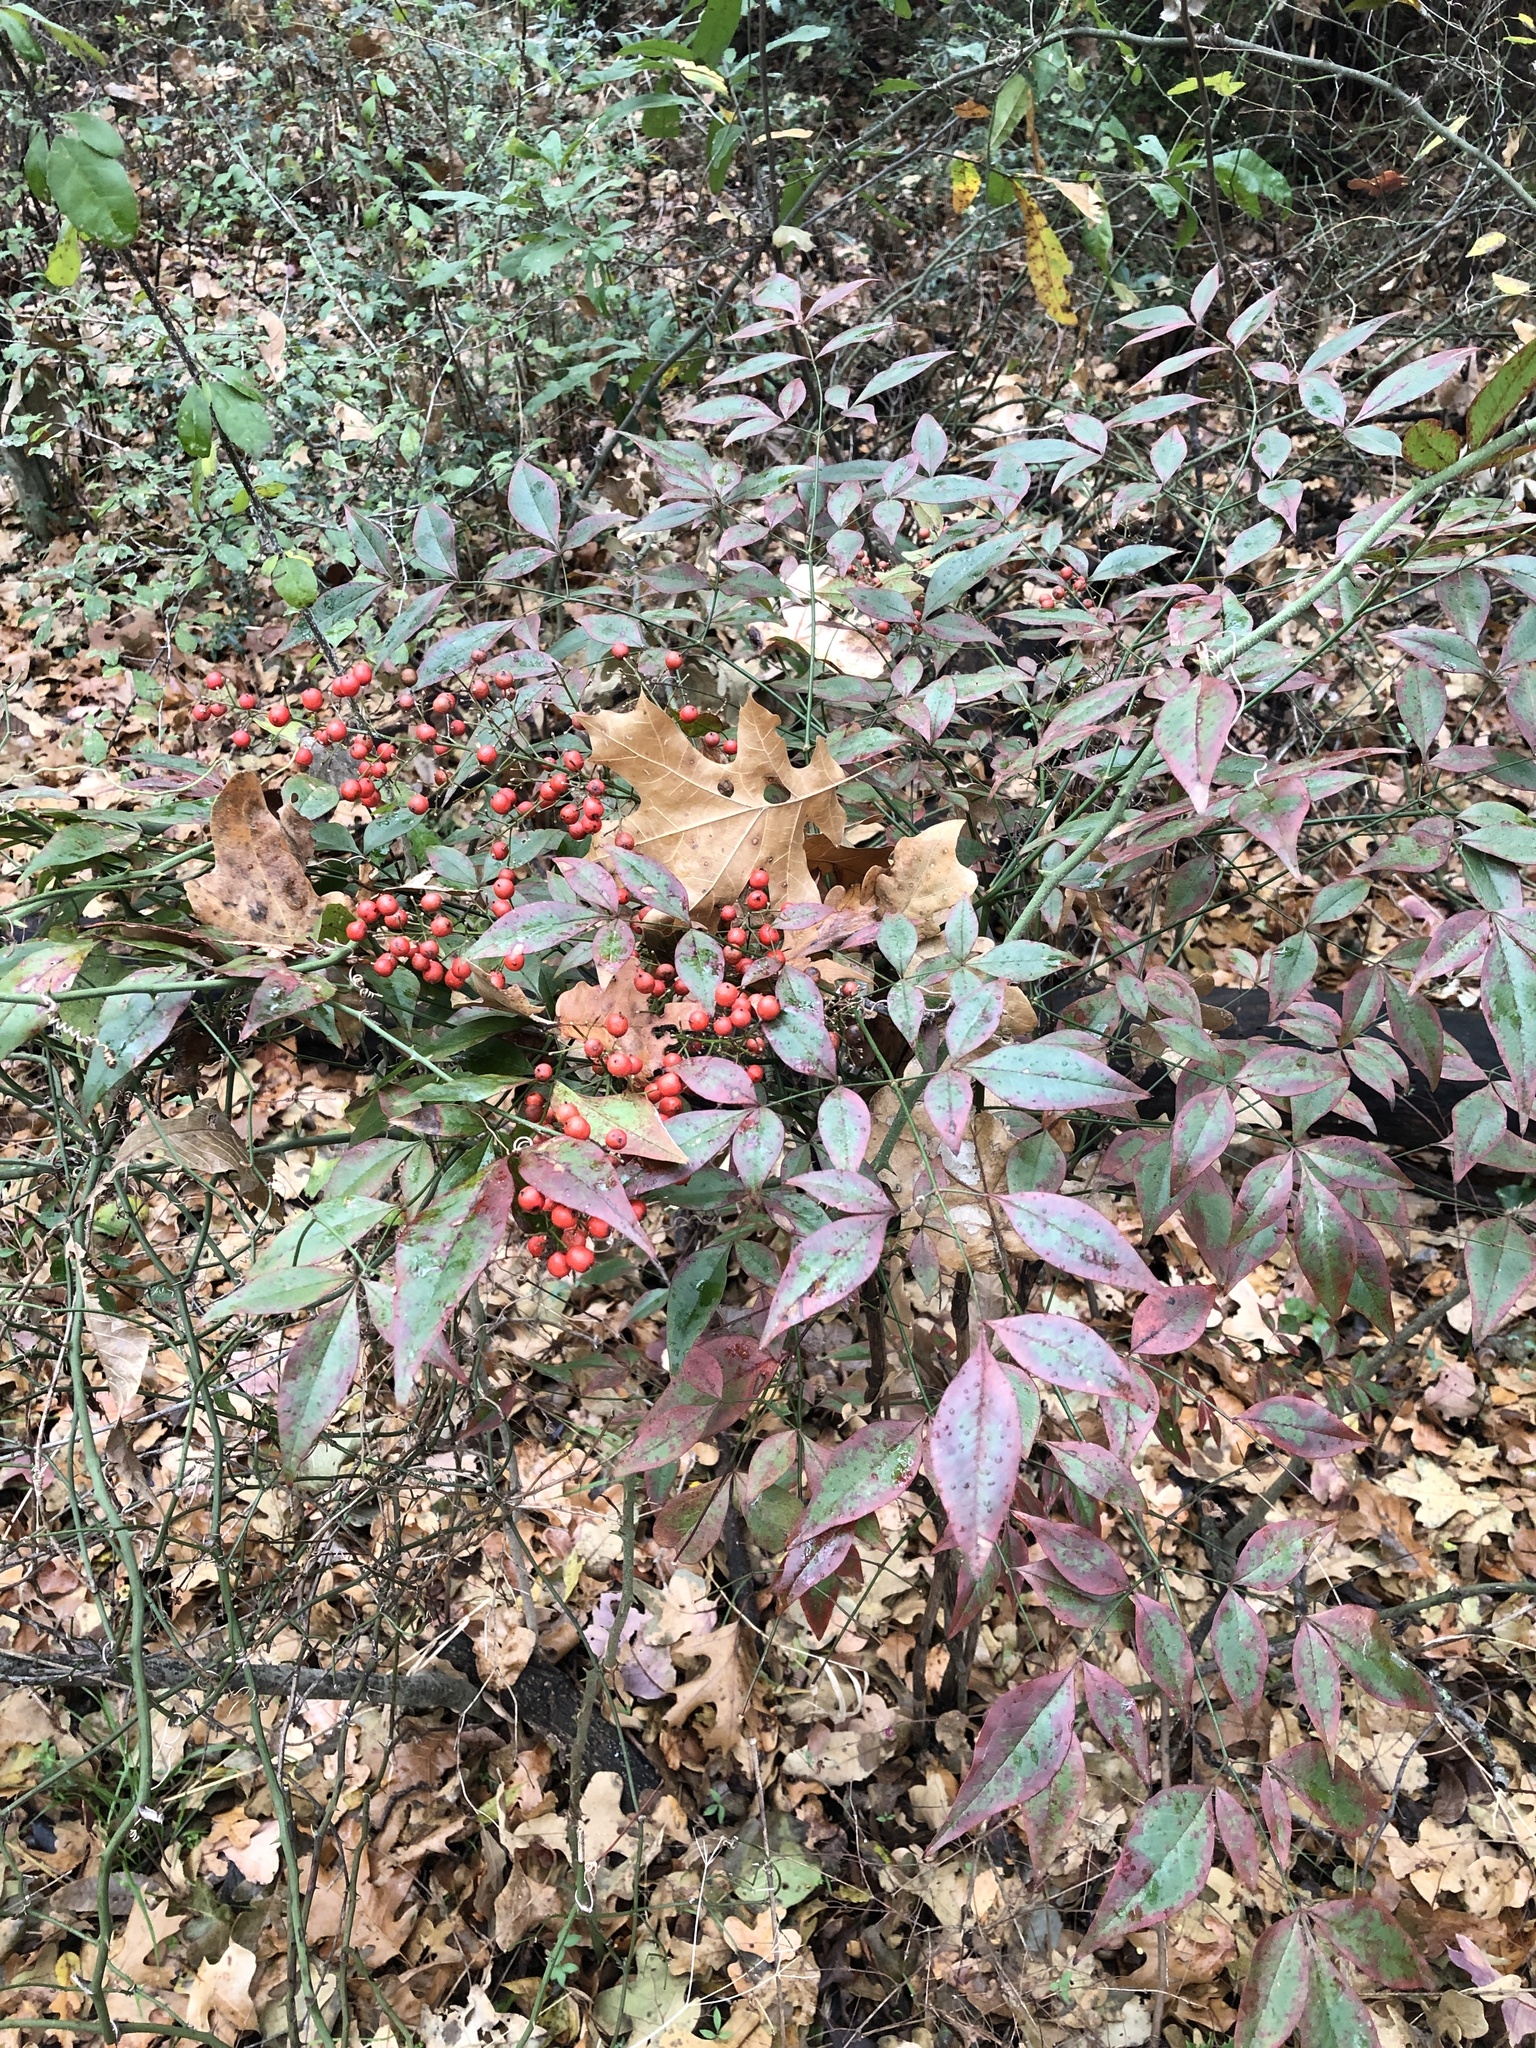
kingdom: Plantae
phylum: Tracheophyta
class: Magnoliopsida
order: Ranunculales
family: Berberidaceae
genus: Nandina
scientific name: Nandina domestica
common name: Sacred bamboo
